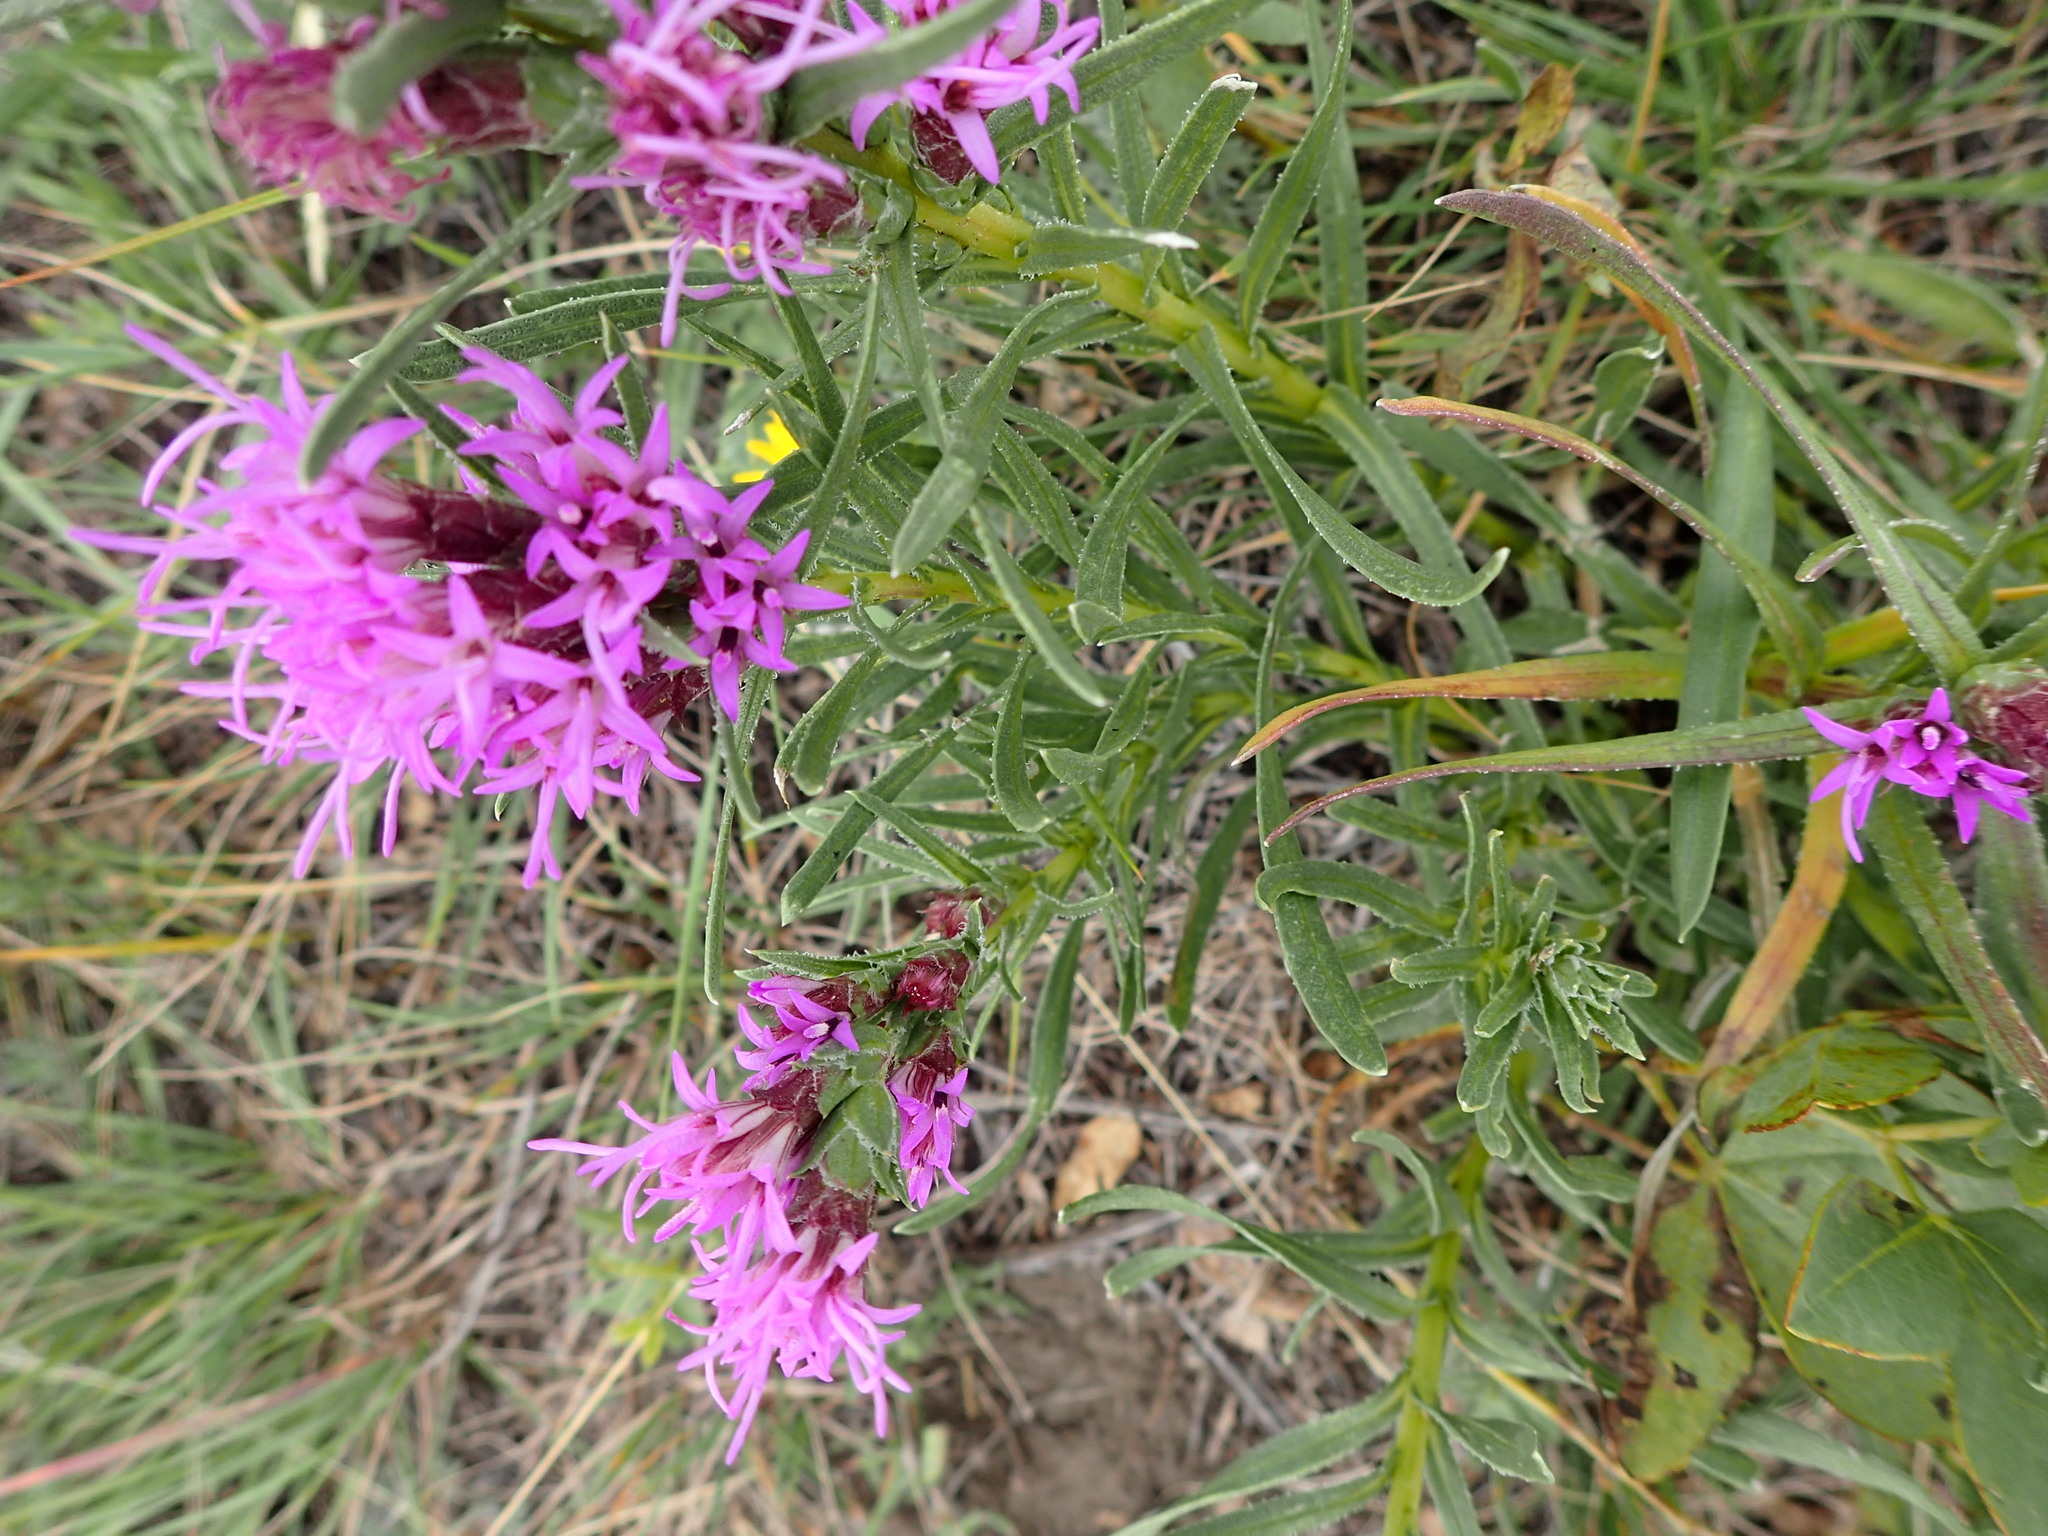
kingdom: Plantae
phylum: Tracheophyta
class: Magnoliopsida
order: Asterales
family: Asteraceae
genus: Liatris
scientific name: Liatris punctata
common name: Dotted gayfeather
